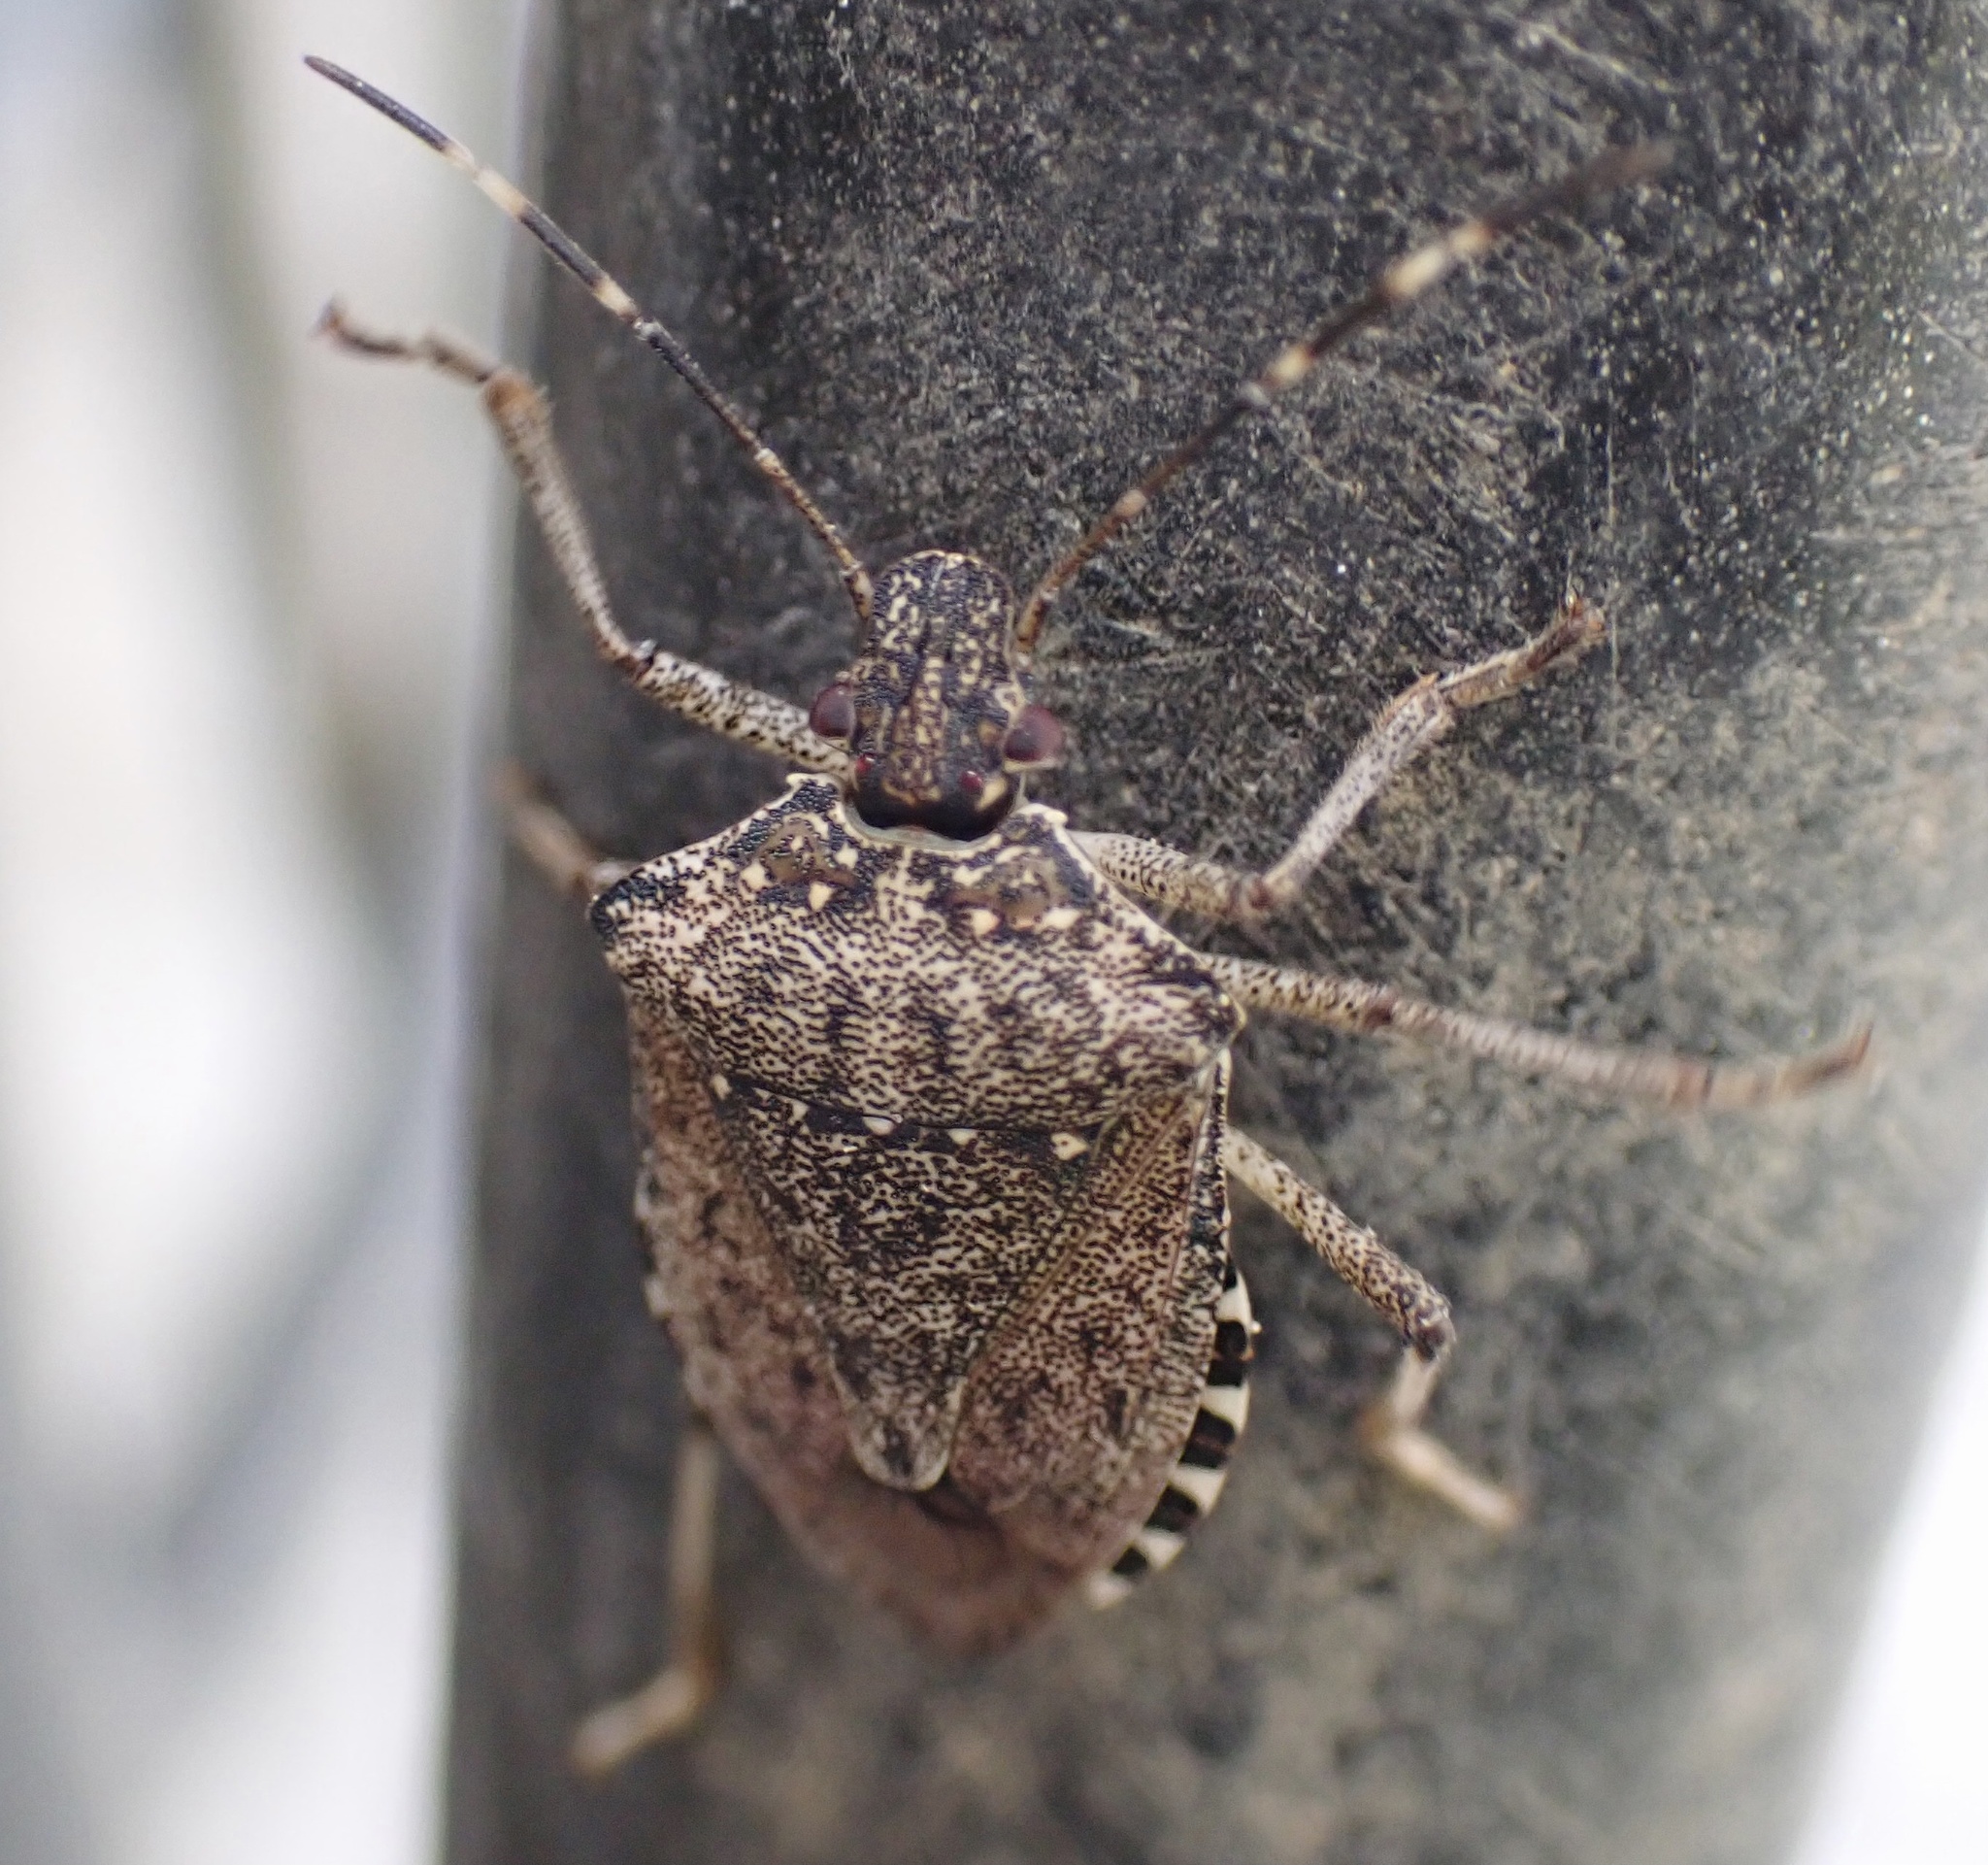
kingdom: Animalia
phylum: Arthropoda
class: Insecta
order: Hemiptera
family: Pentatomidae
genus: Halyomorpha
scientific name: Halyomorpha halys
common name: Brown marmorated stink bug
